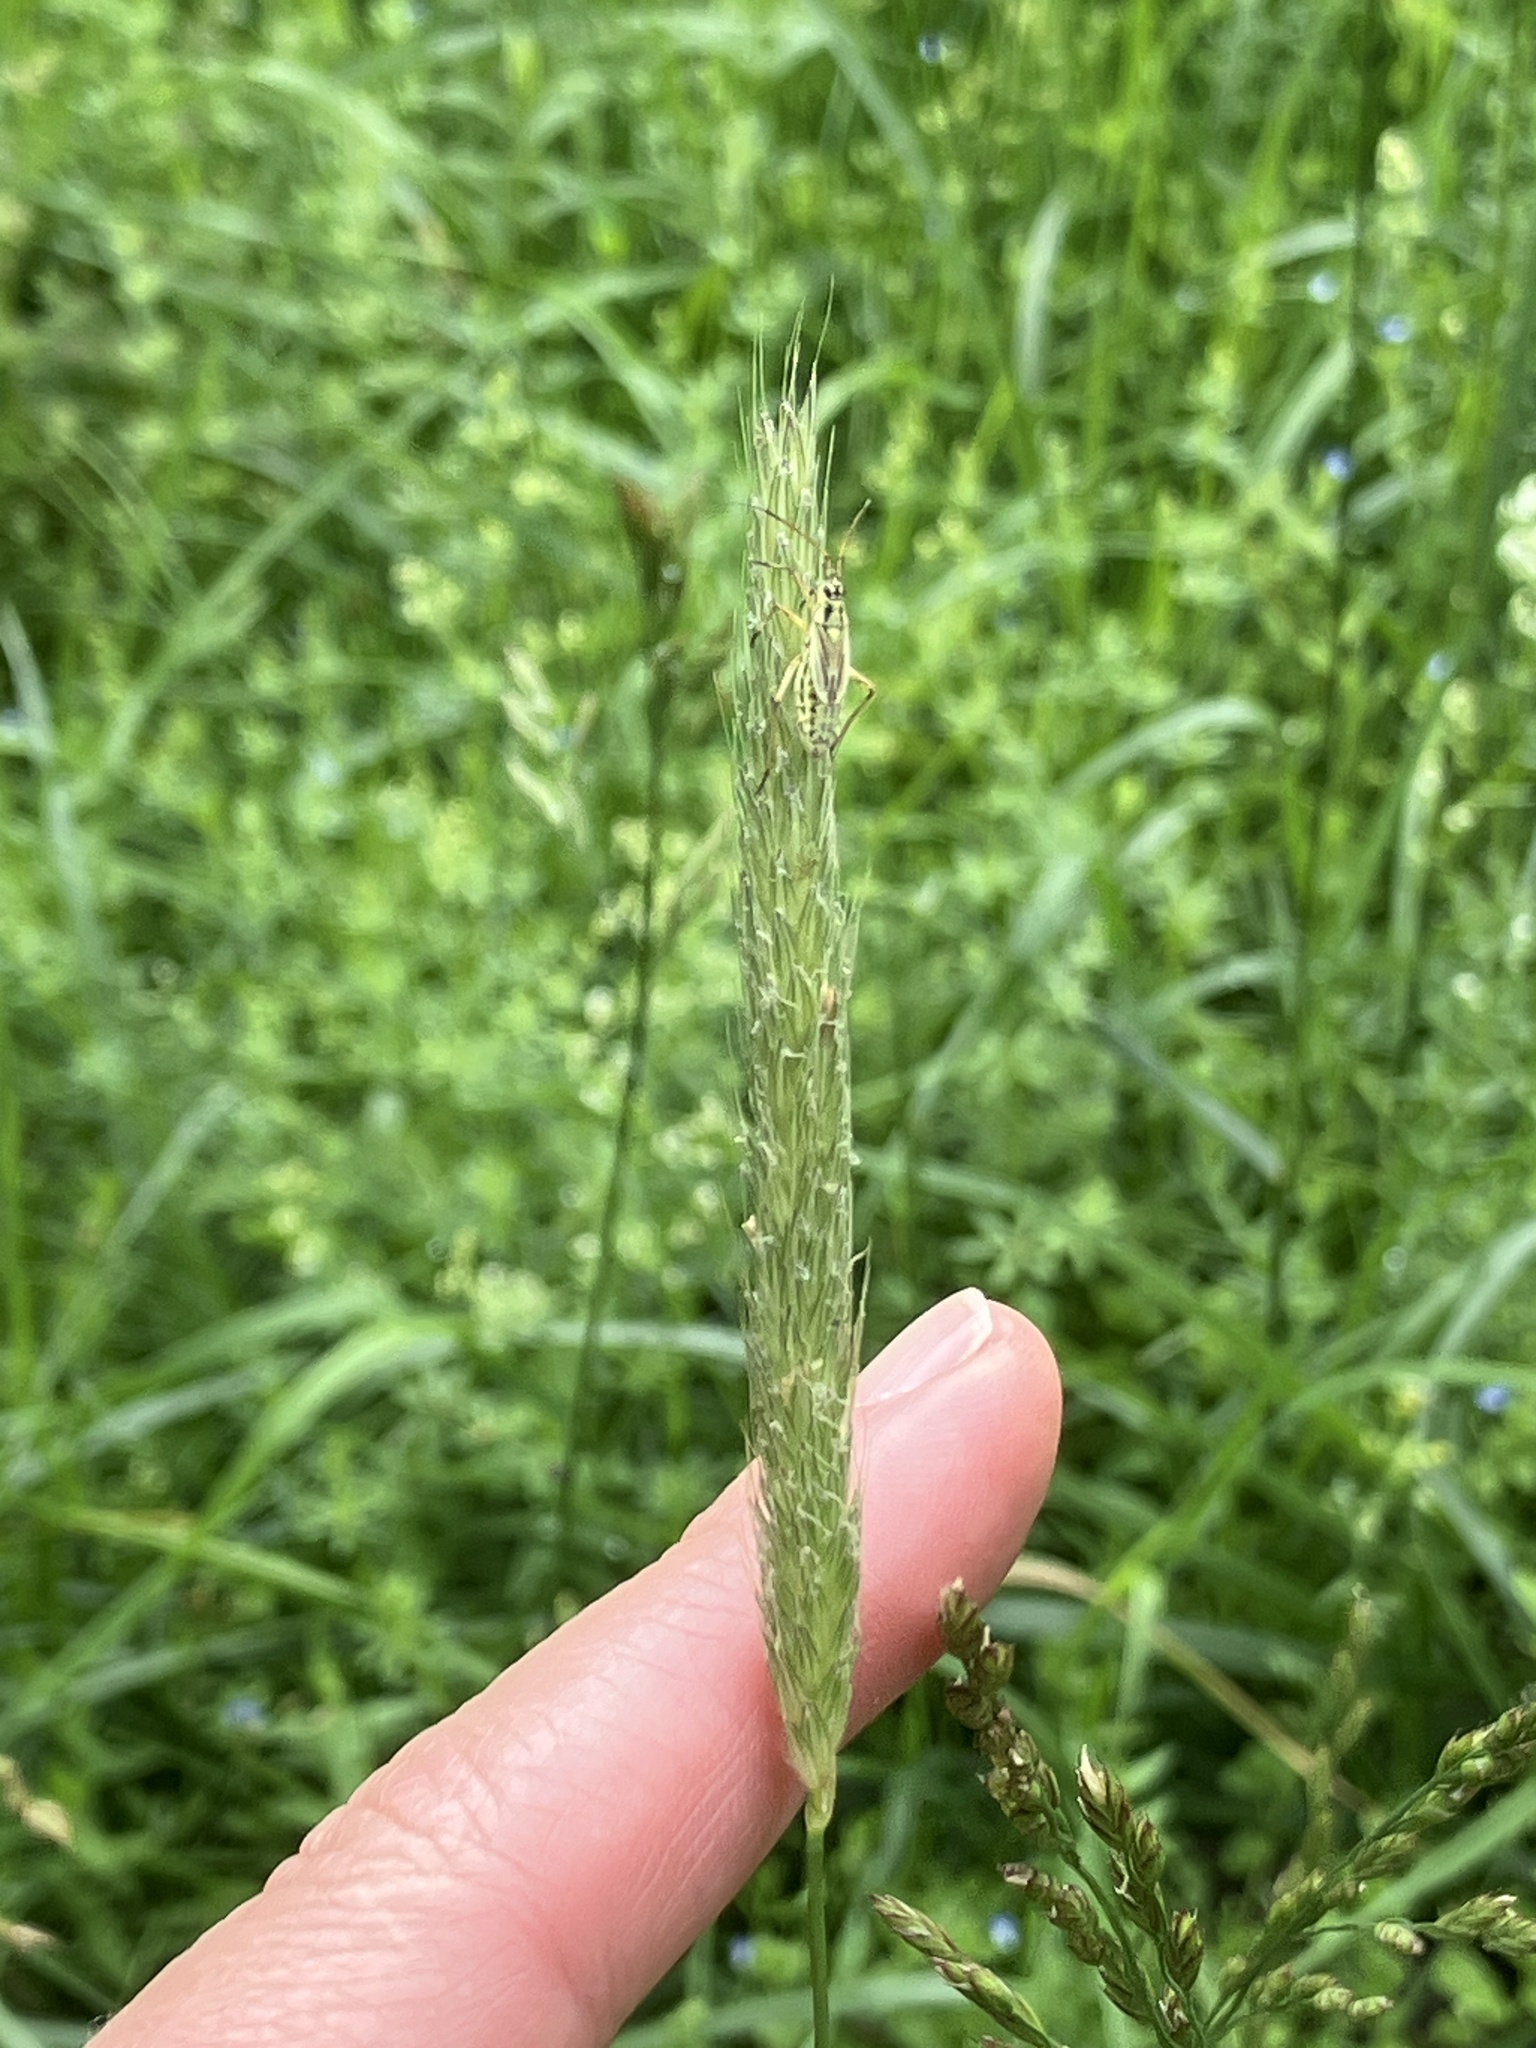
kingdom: Plantae
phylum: Tracheophyta
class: Liliopsida
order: Poales
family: Poaceae
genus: Alopecurus
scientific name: Alopecurus pratensis
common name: Meadow foxtail
